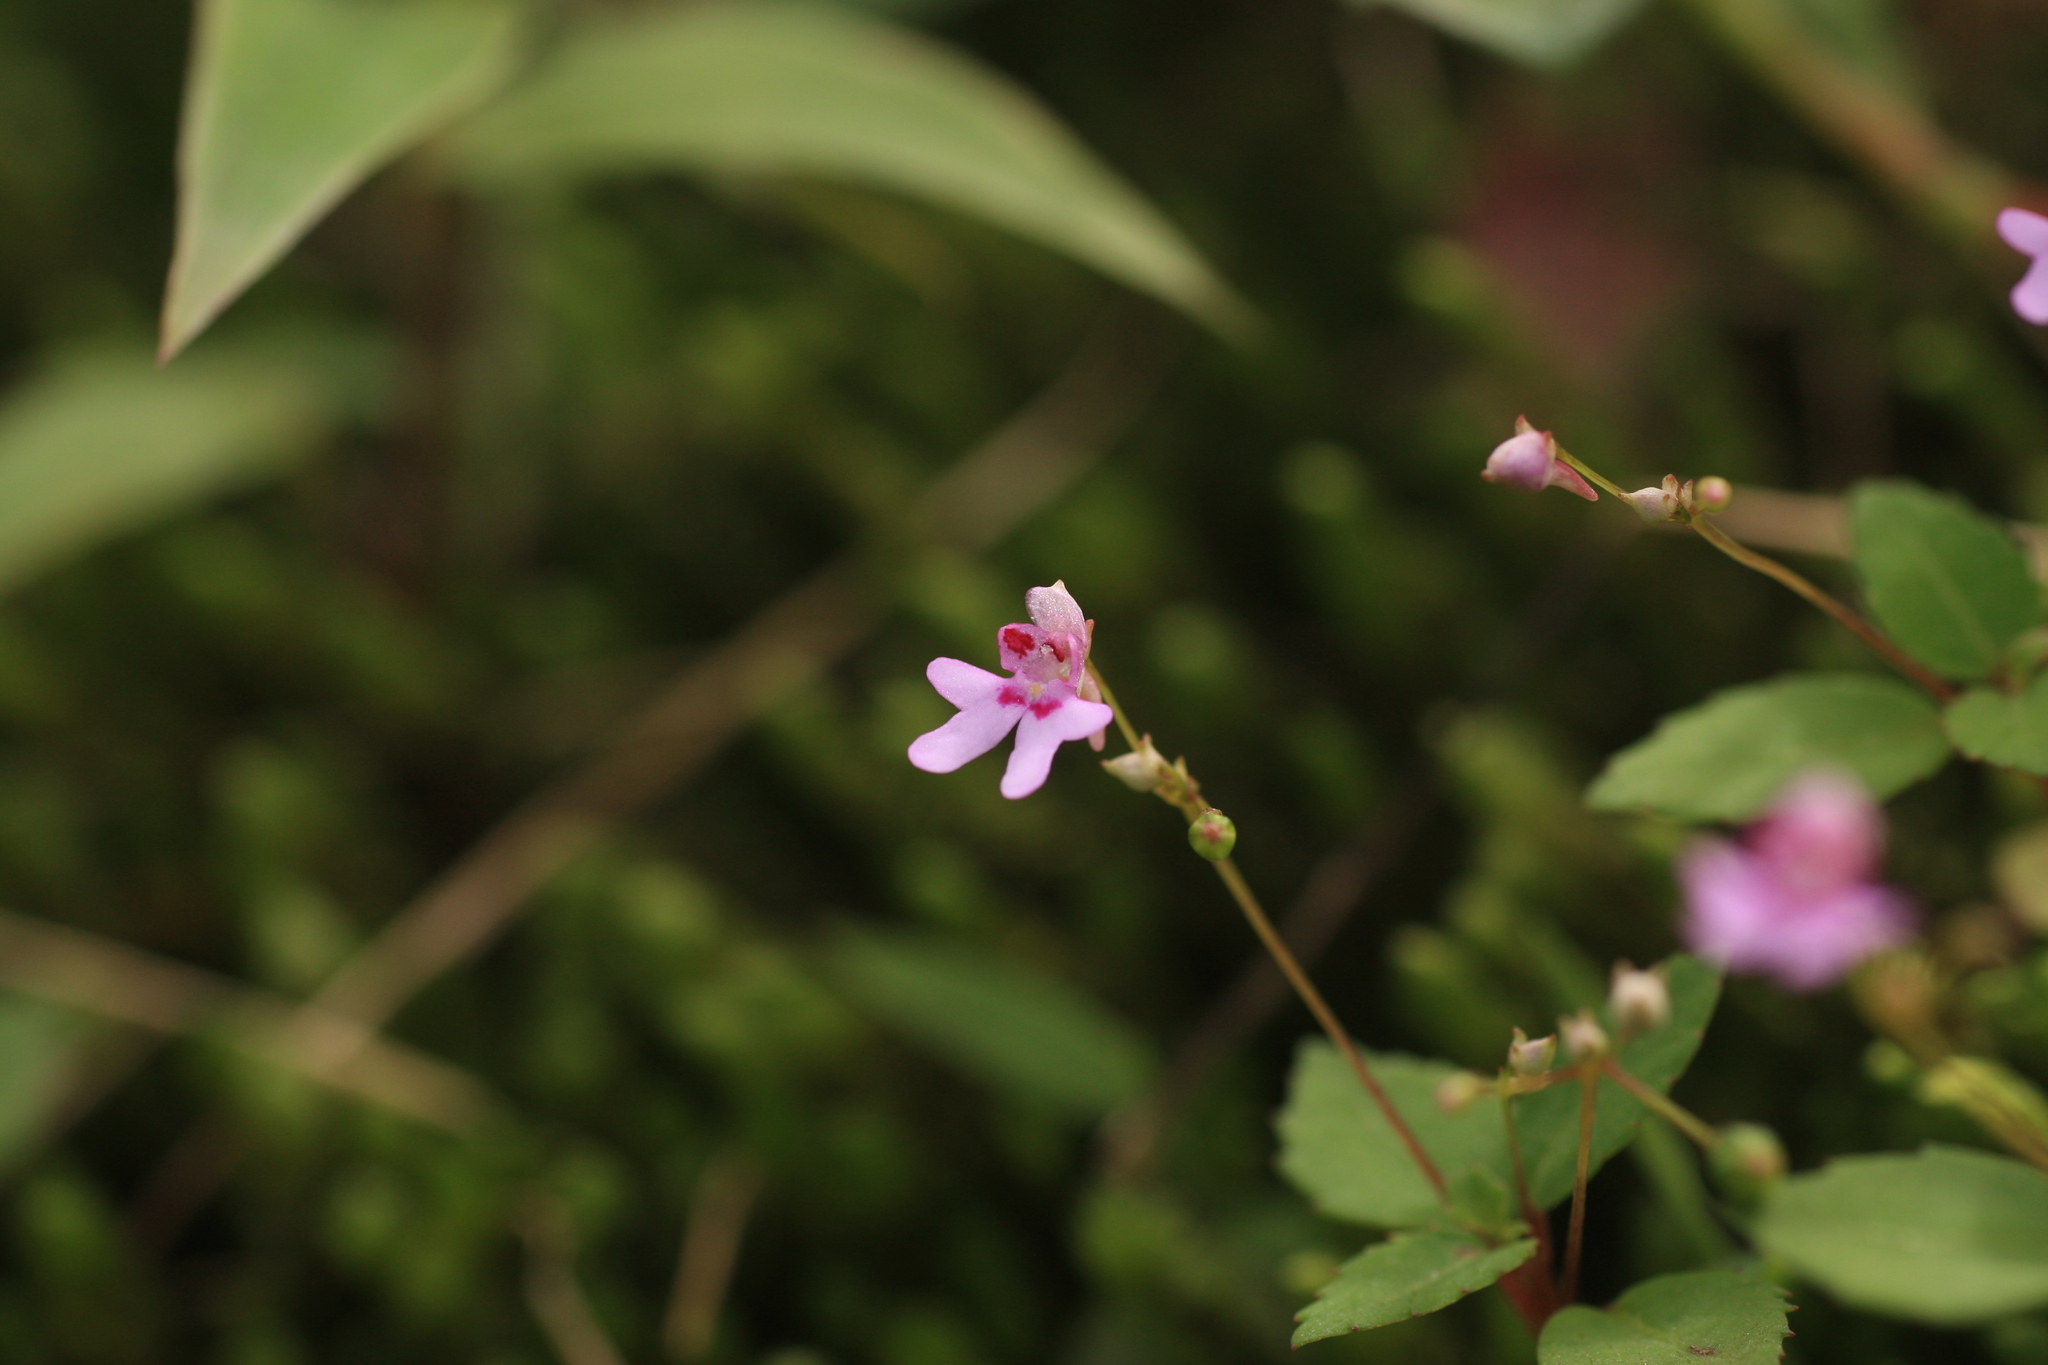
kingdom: Plantae
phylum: Tracheophyta
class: Magnoliopsida
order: Ericales
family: Balsaminaceae
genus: Impatiens
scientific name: Impatiens goughii
